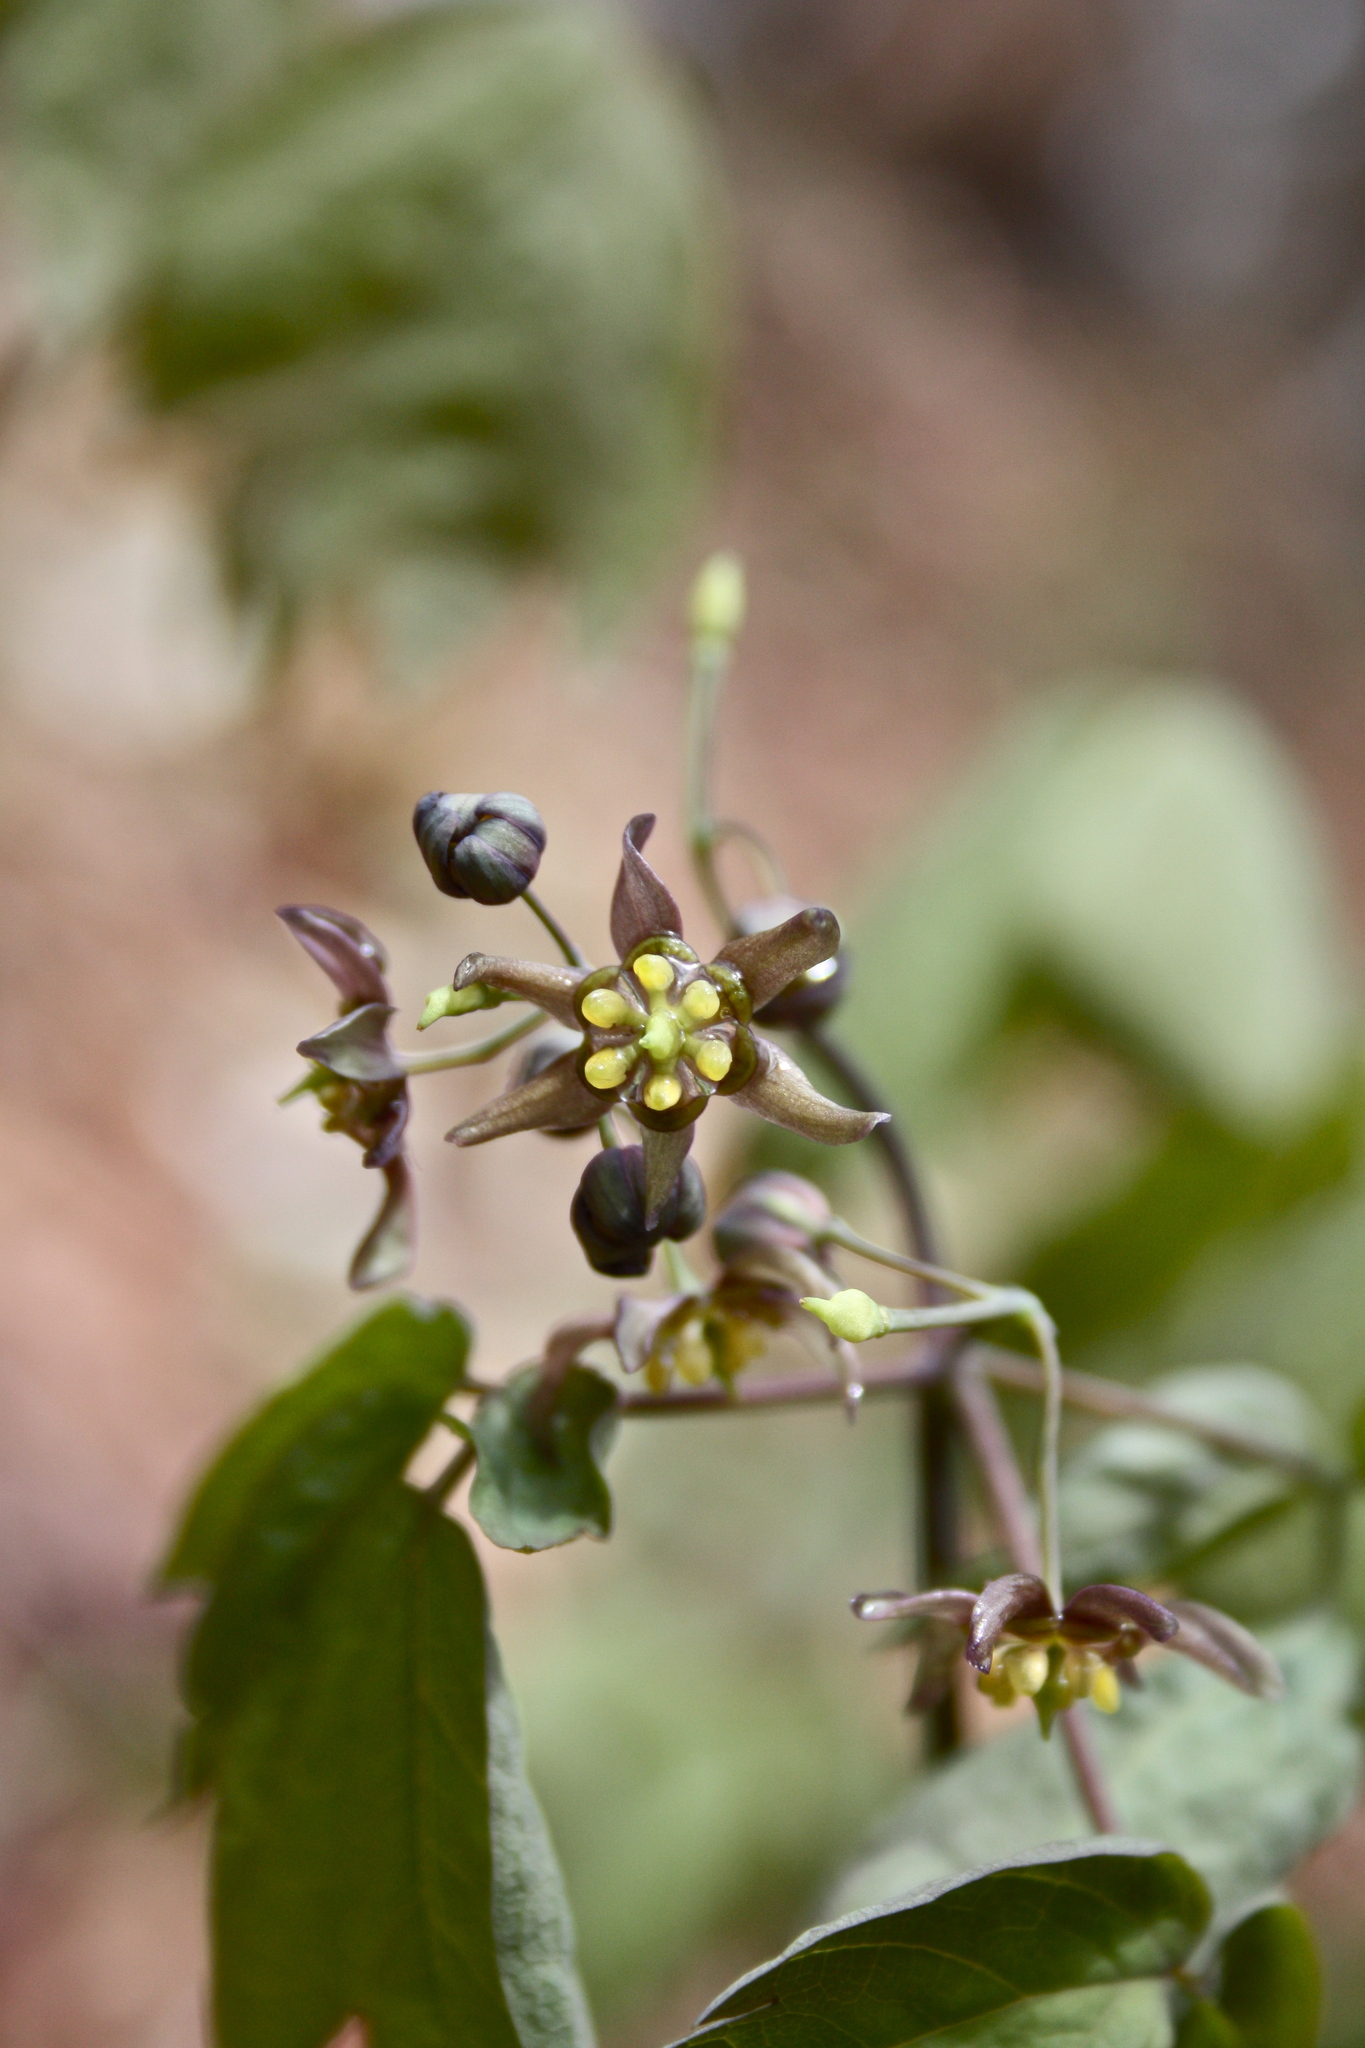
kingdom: Plantae
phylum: Tracheophyta
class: Magnoliopsida
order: Ranunculales
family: Berberidaceae
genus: Caulophyllum
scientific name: Caulophyllum thalictroides
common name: Blue cohosh
